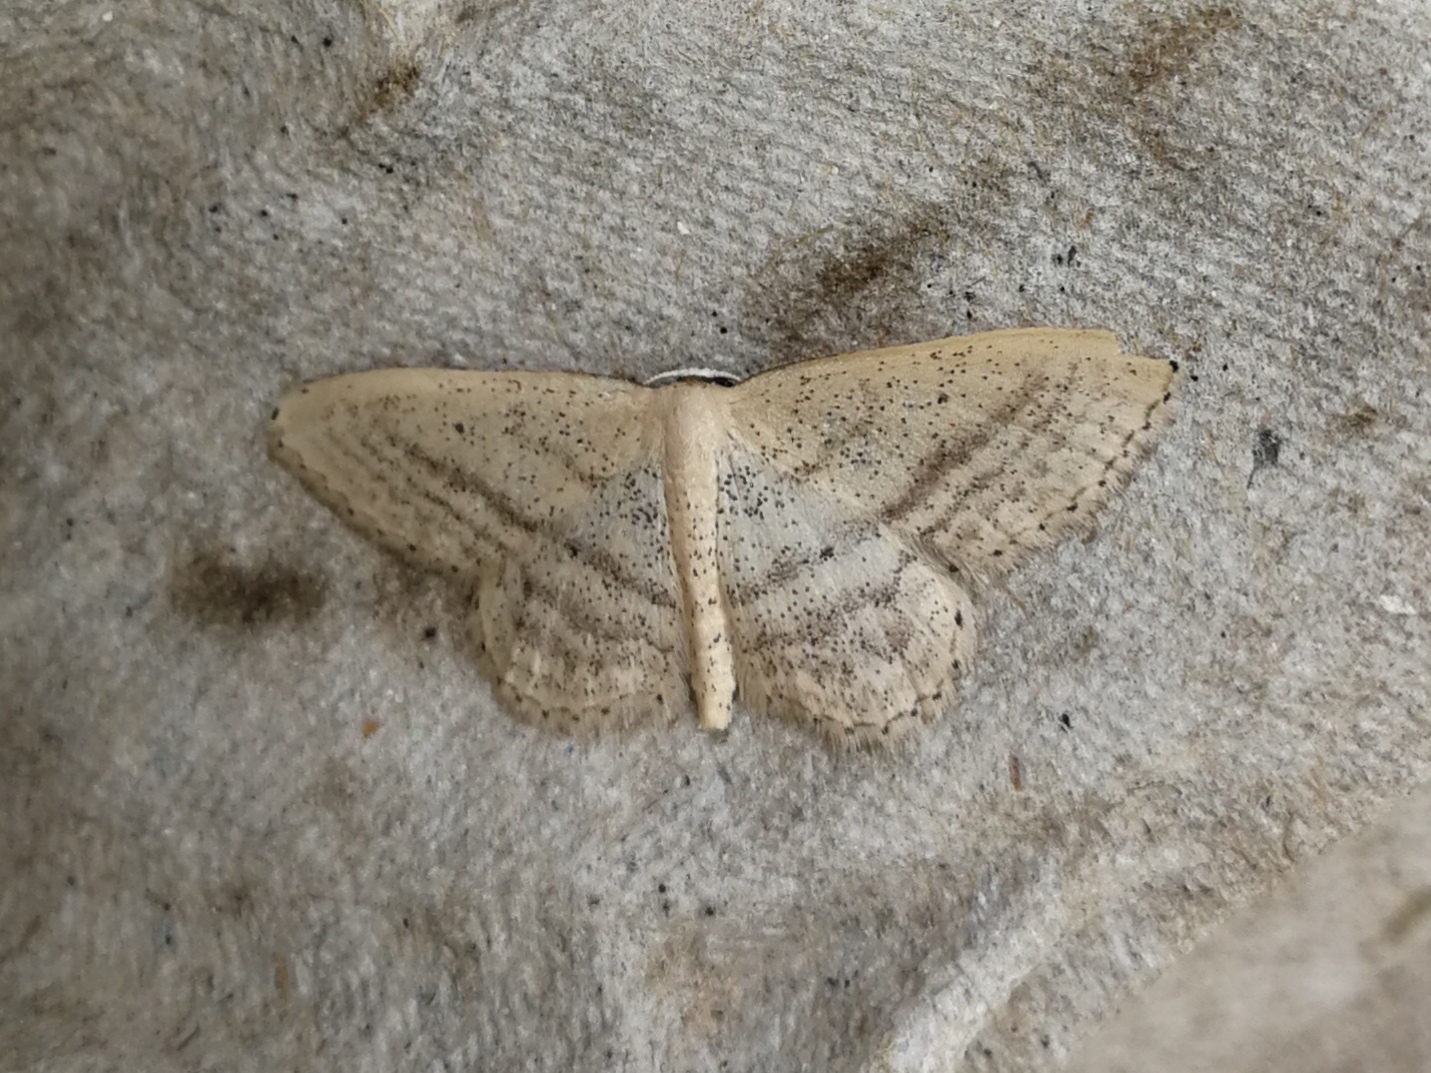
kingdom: Animalia
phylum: Arthropoda
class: Insecta
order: Lepidoptera
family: Geometridae
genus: Idaea
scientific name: Idaea mediaria
